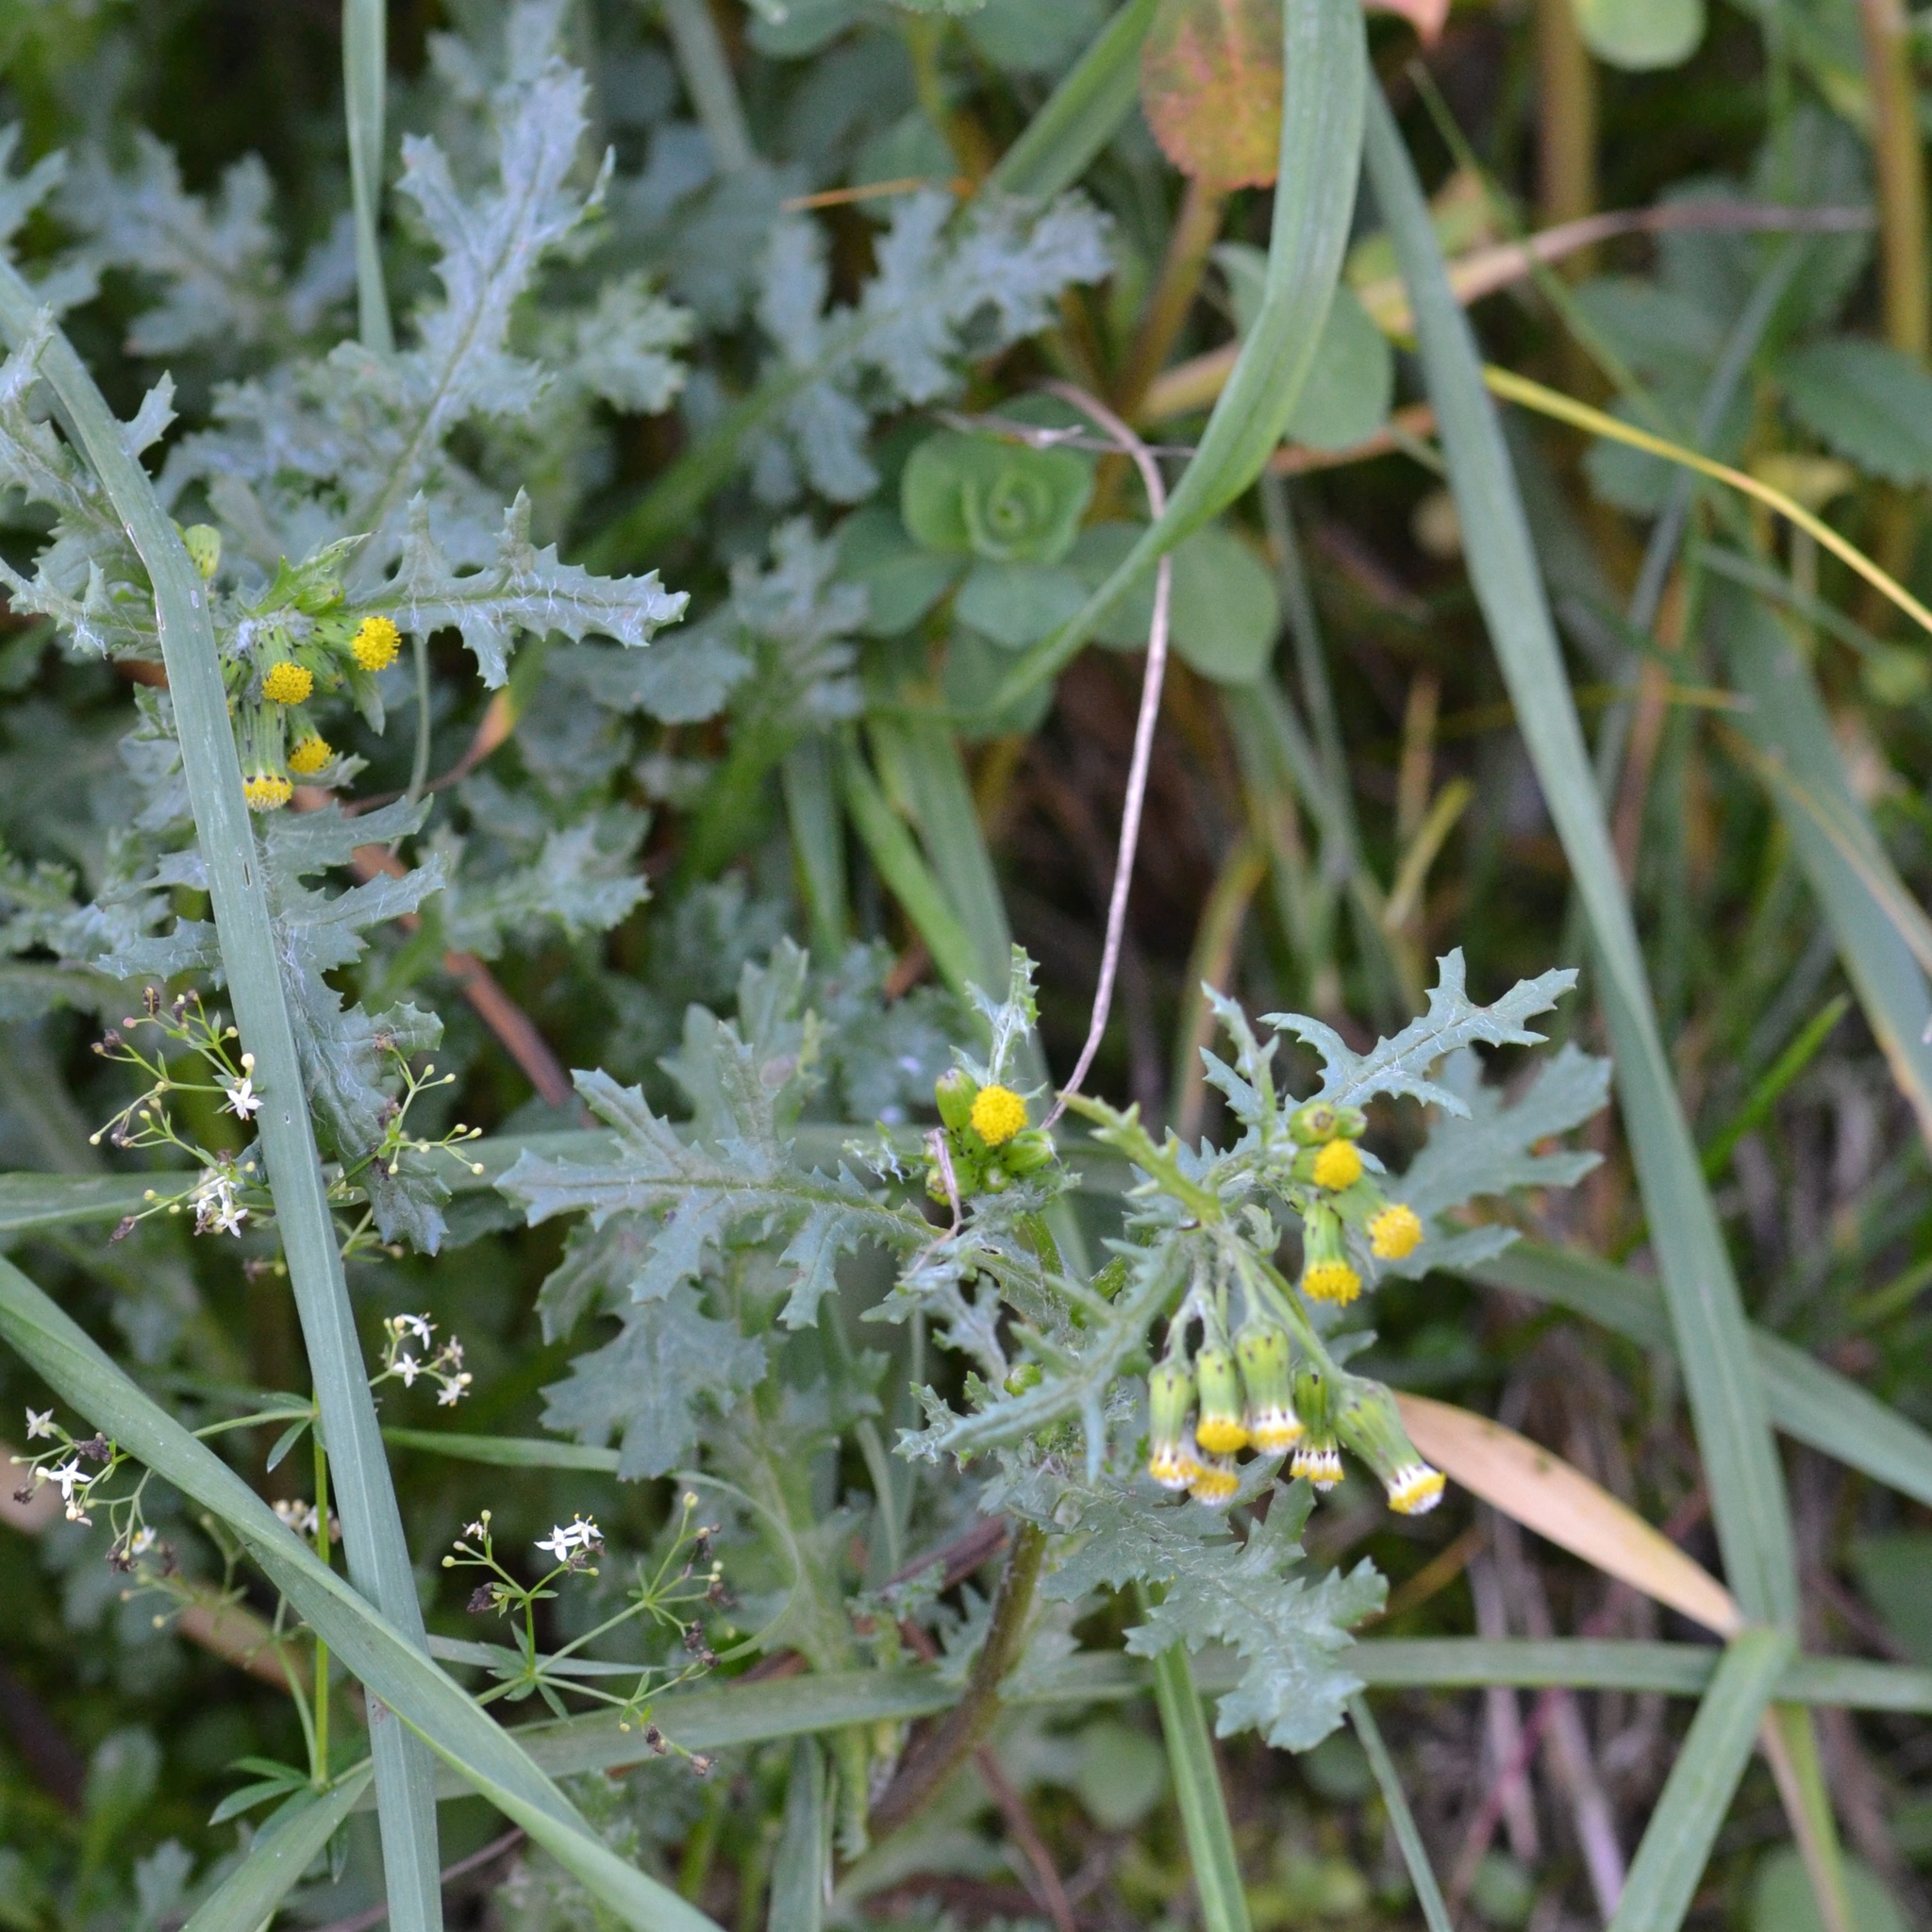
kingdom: Plantae
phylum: Tracheophyta
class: Magnoliopsida
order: Asterales
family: Asteraceae
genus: Senecio
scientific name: Senecio vulgaris
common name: Old-man-in-the-spring
